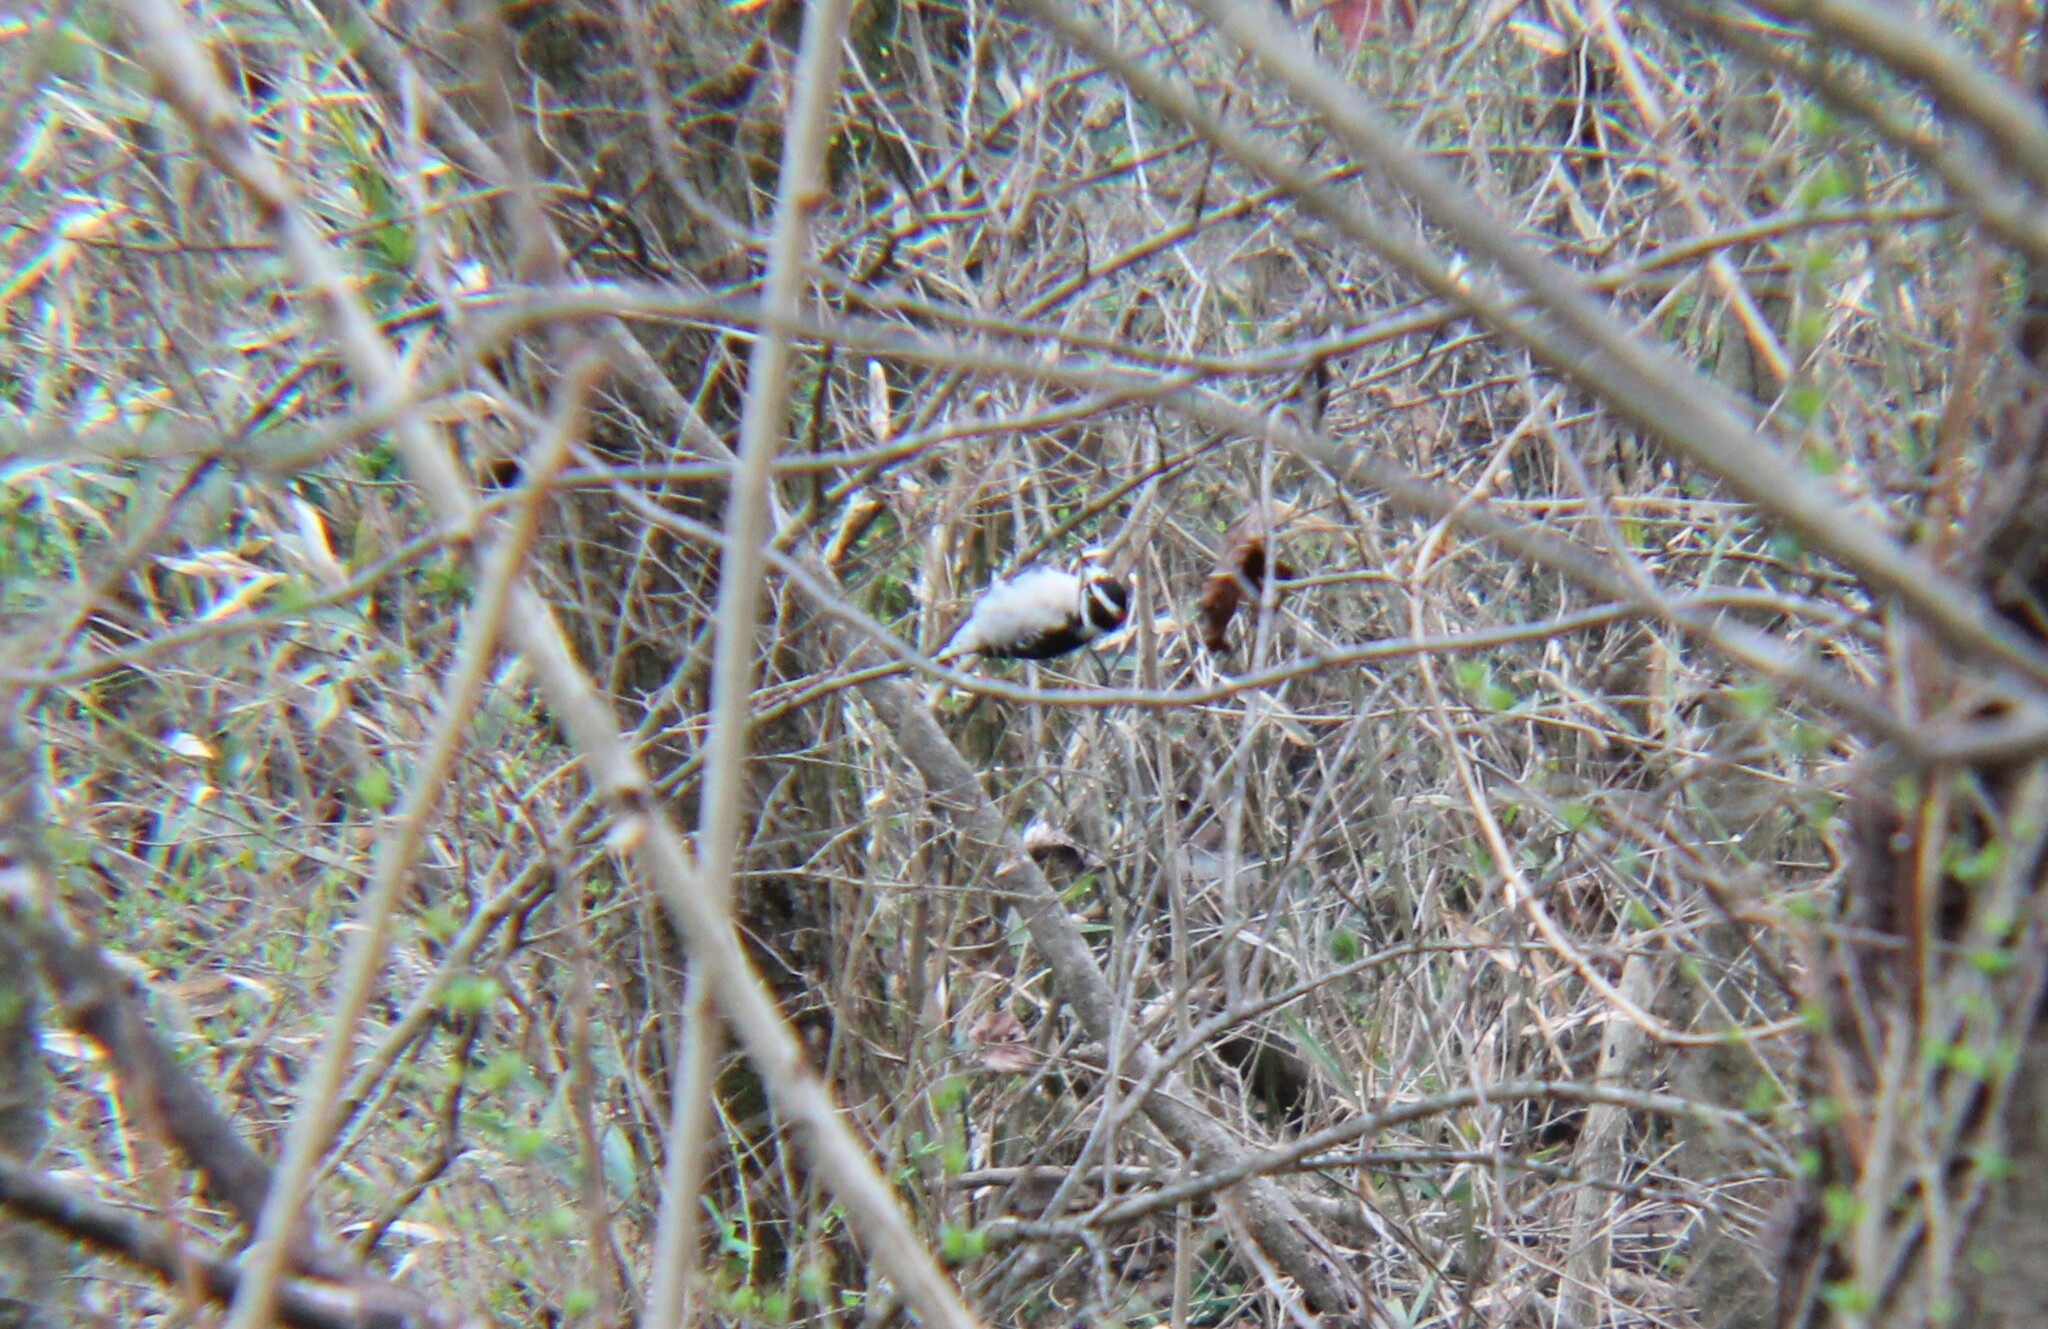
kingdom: Animalia
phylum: Chordata
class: Aves
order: Piciformes
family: Picidae
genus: Dryobates
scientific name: Dryobates pubescens
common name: Downy woodpecker
